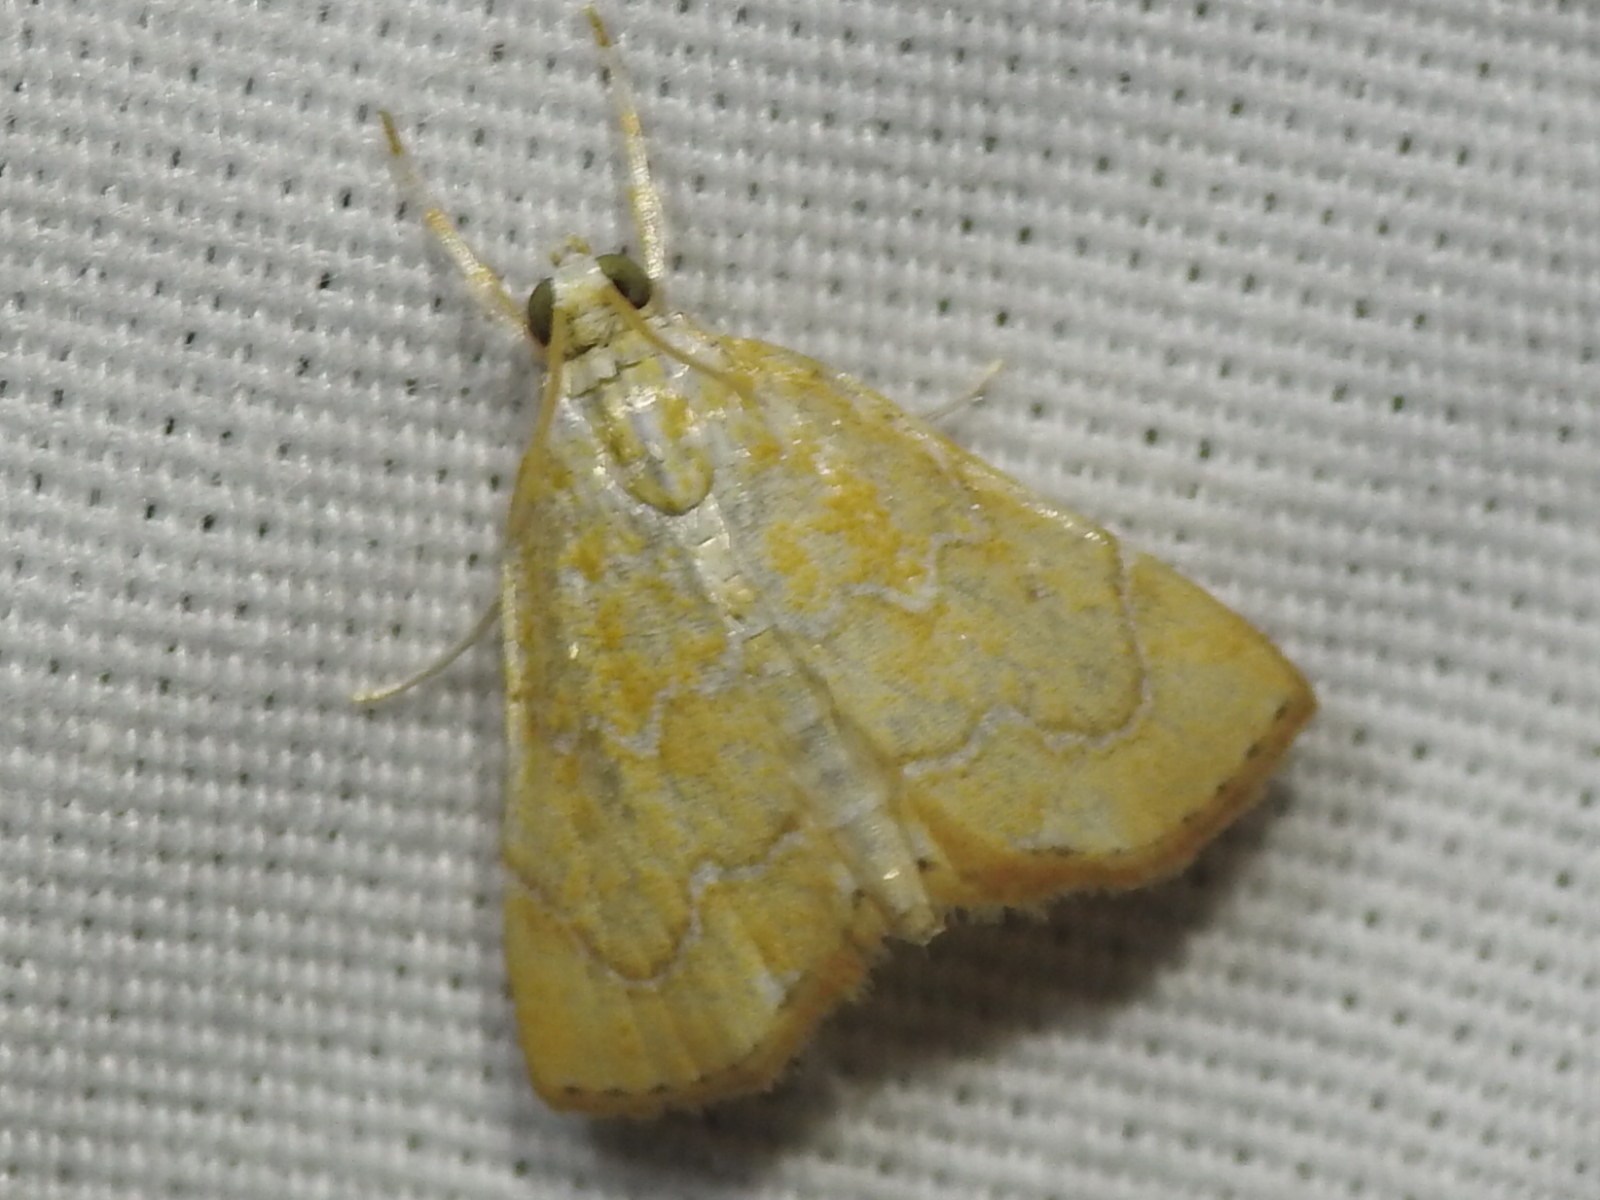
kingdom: Animalia
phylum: Arthropoda
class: Insecta
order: Lepidoptera
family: Crambidae
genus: Glaphyria
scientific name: Glaphyria sesquistrialis
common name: White-roped glaphyria
